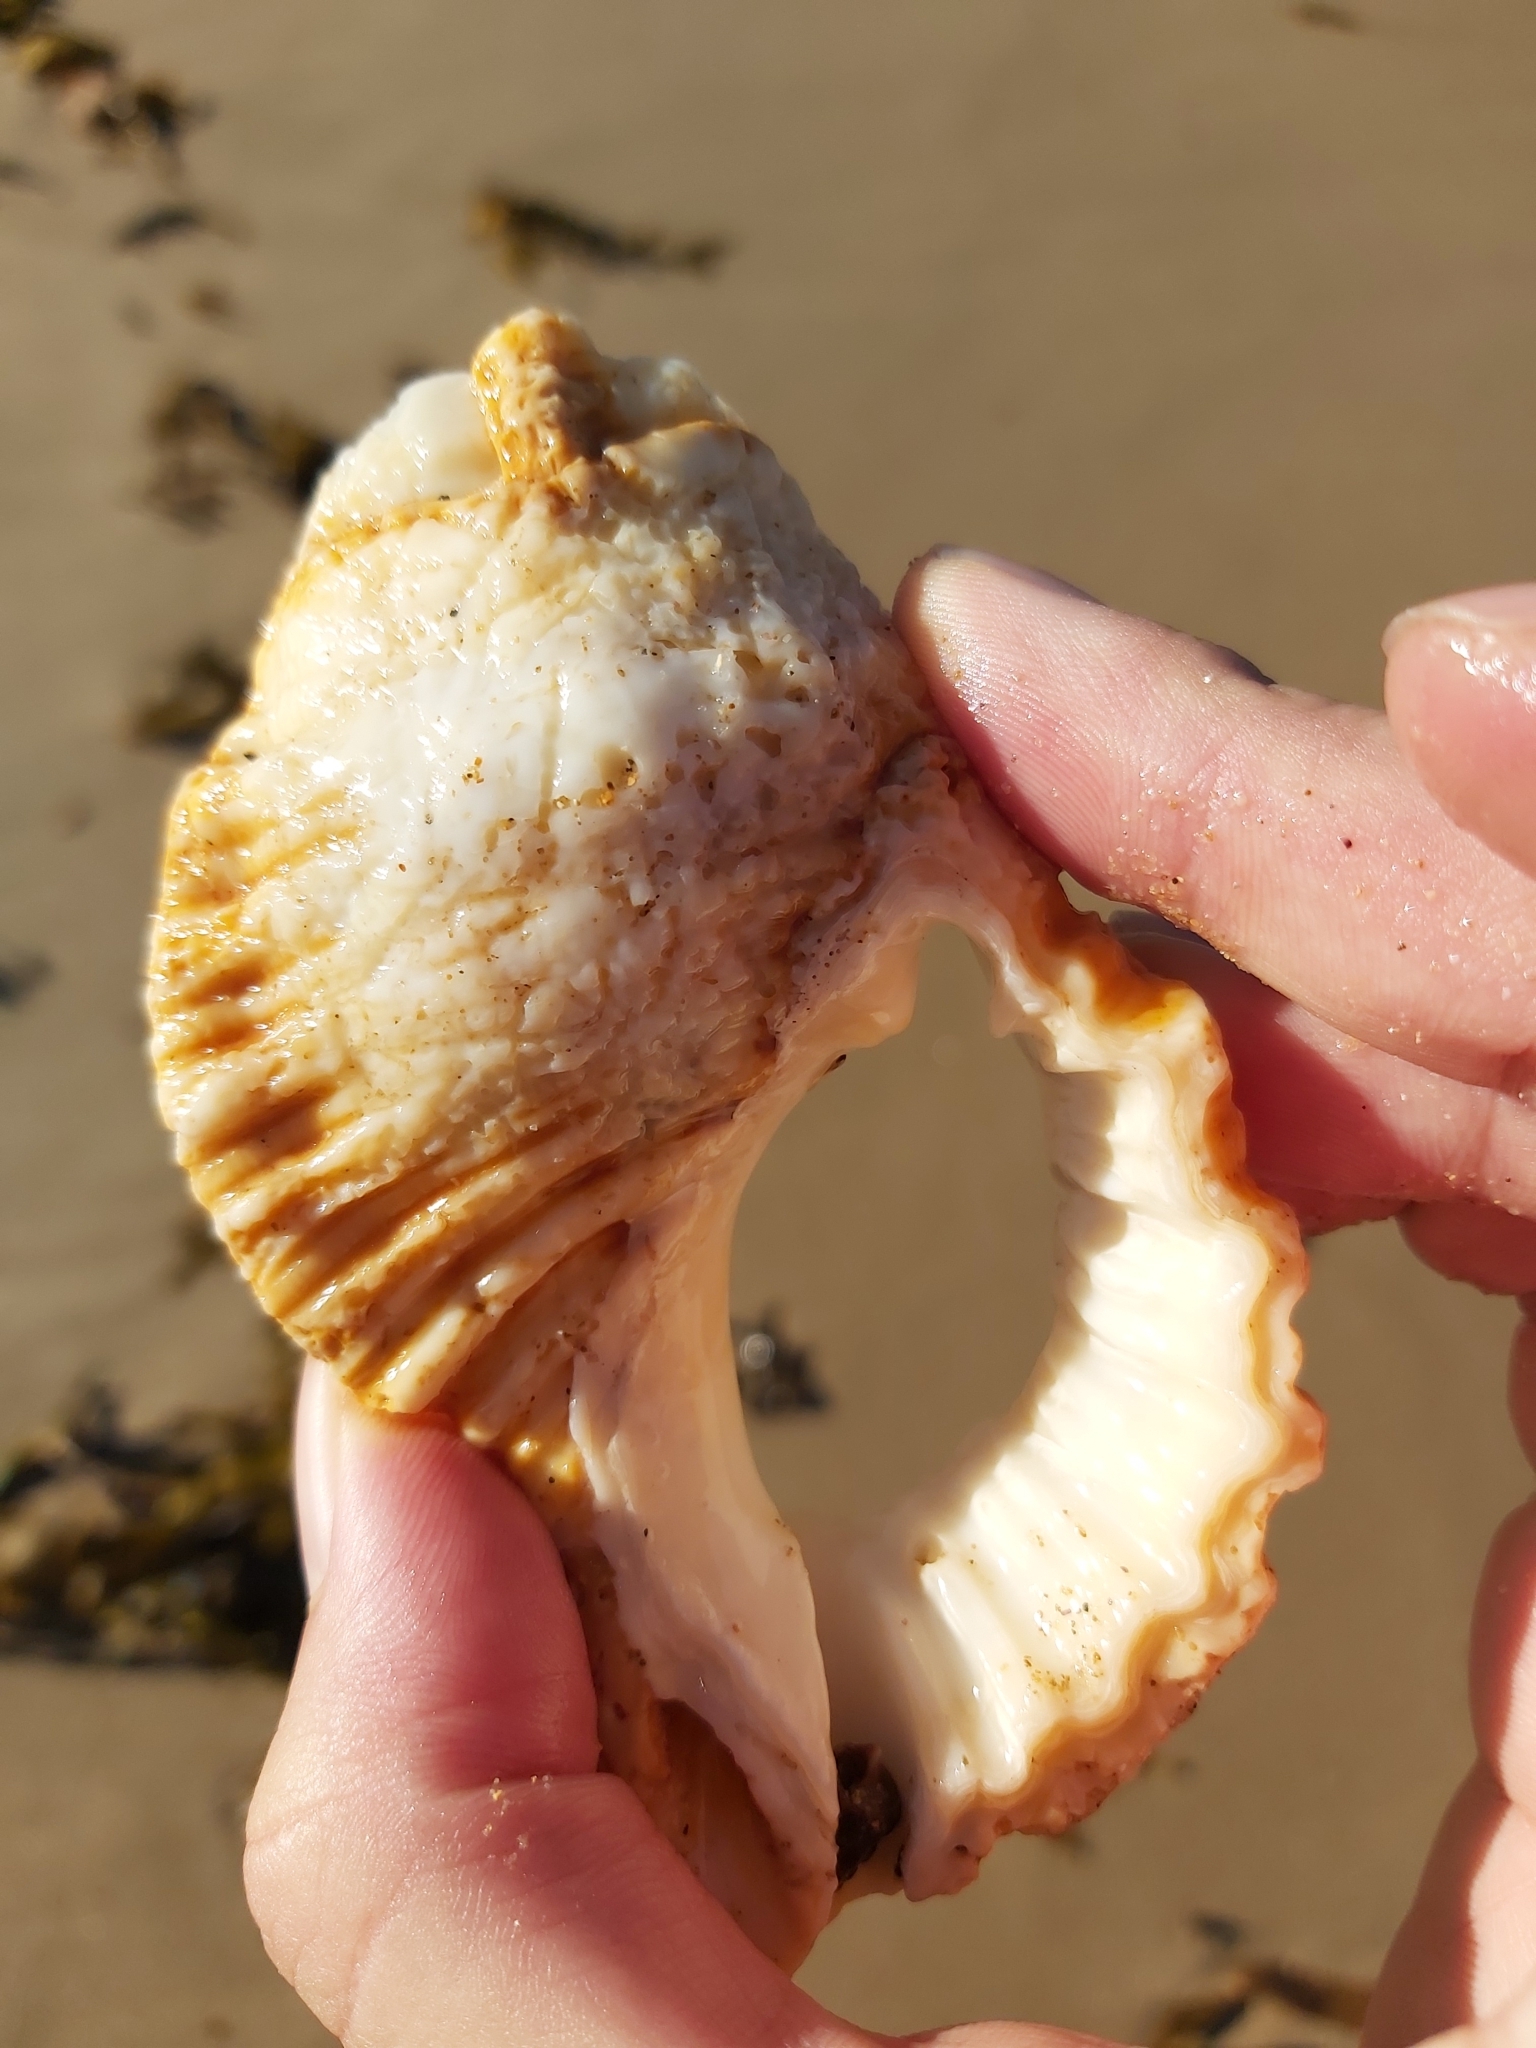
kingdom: Animalia
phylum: Mollusca
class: Gastropoda
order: Littorinimorpha
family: Cymatiidae
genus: Cabestana
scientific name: Cabestana spengleri
